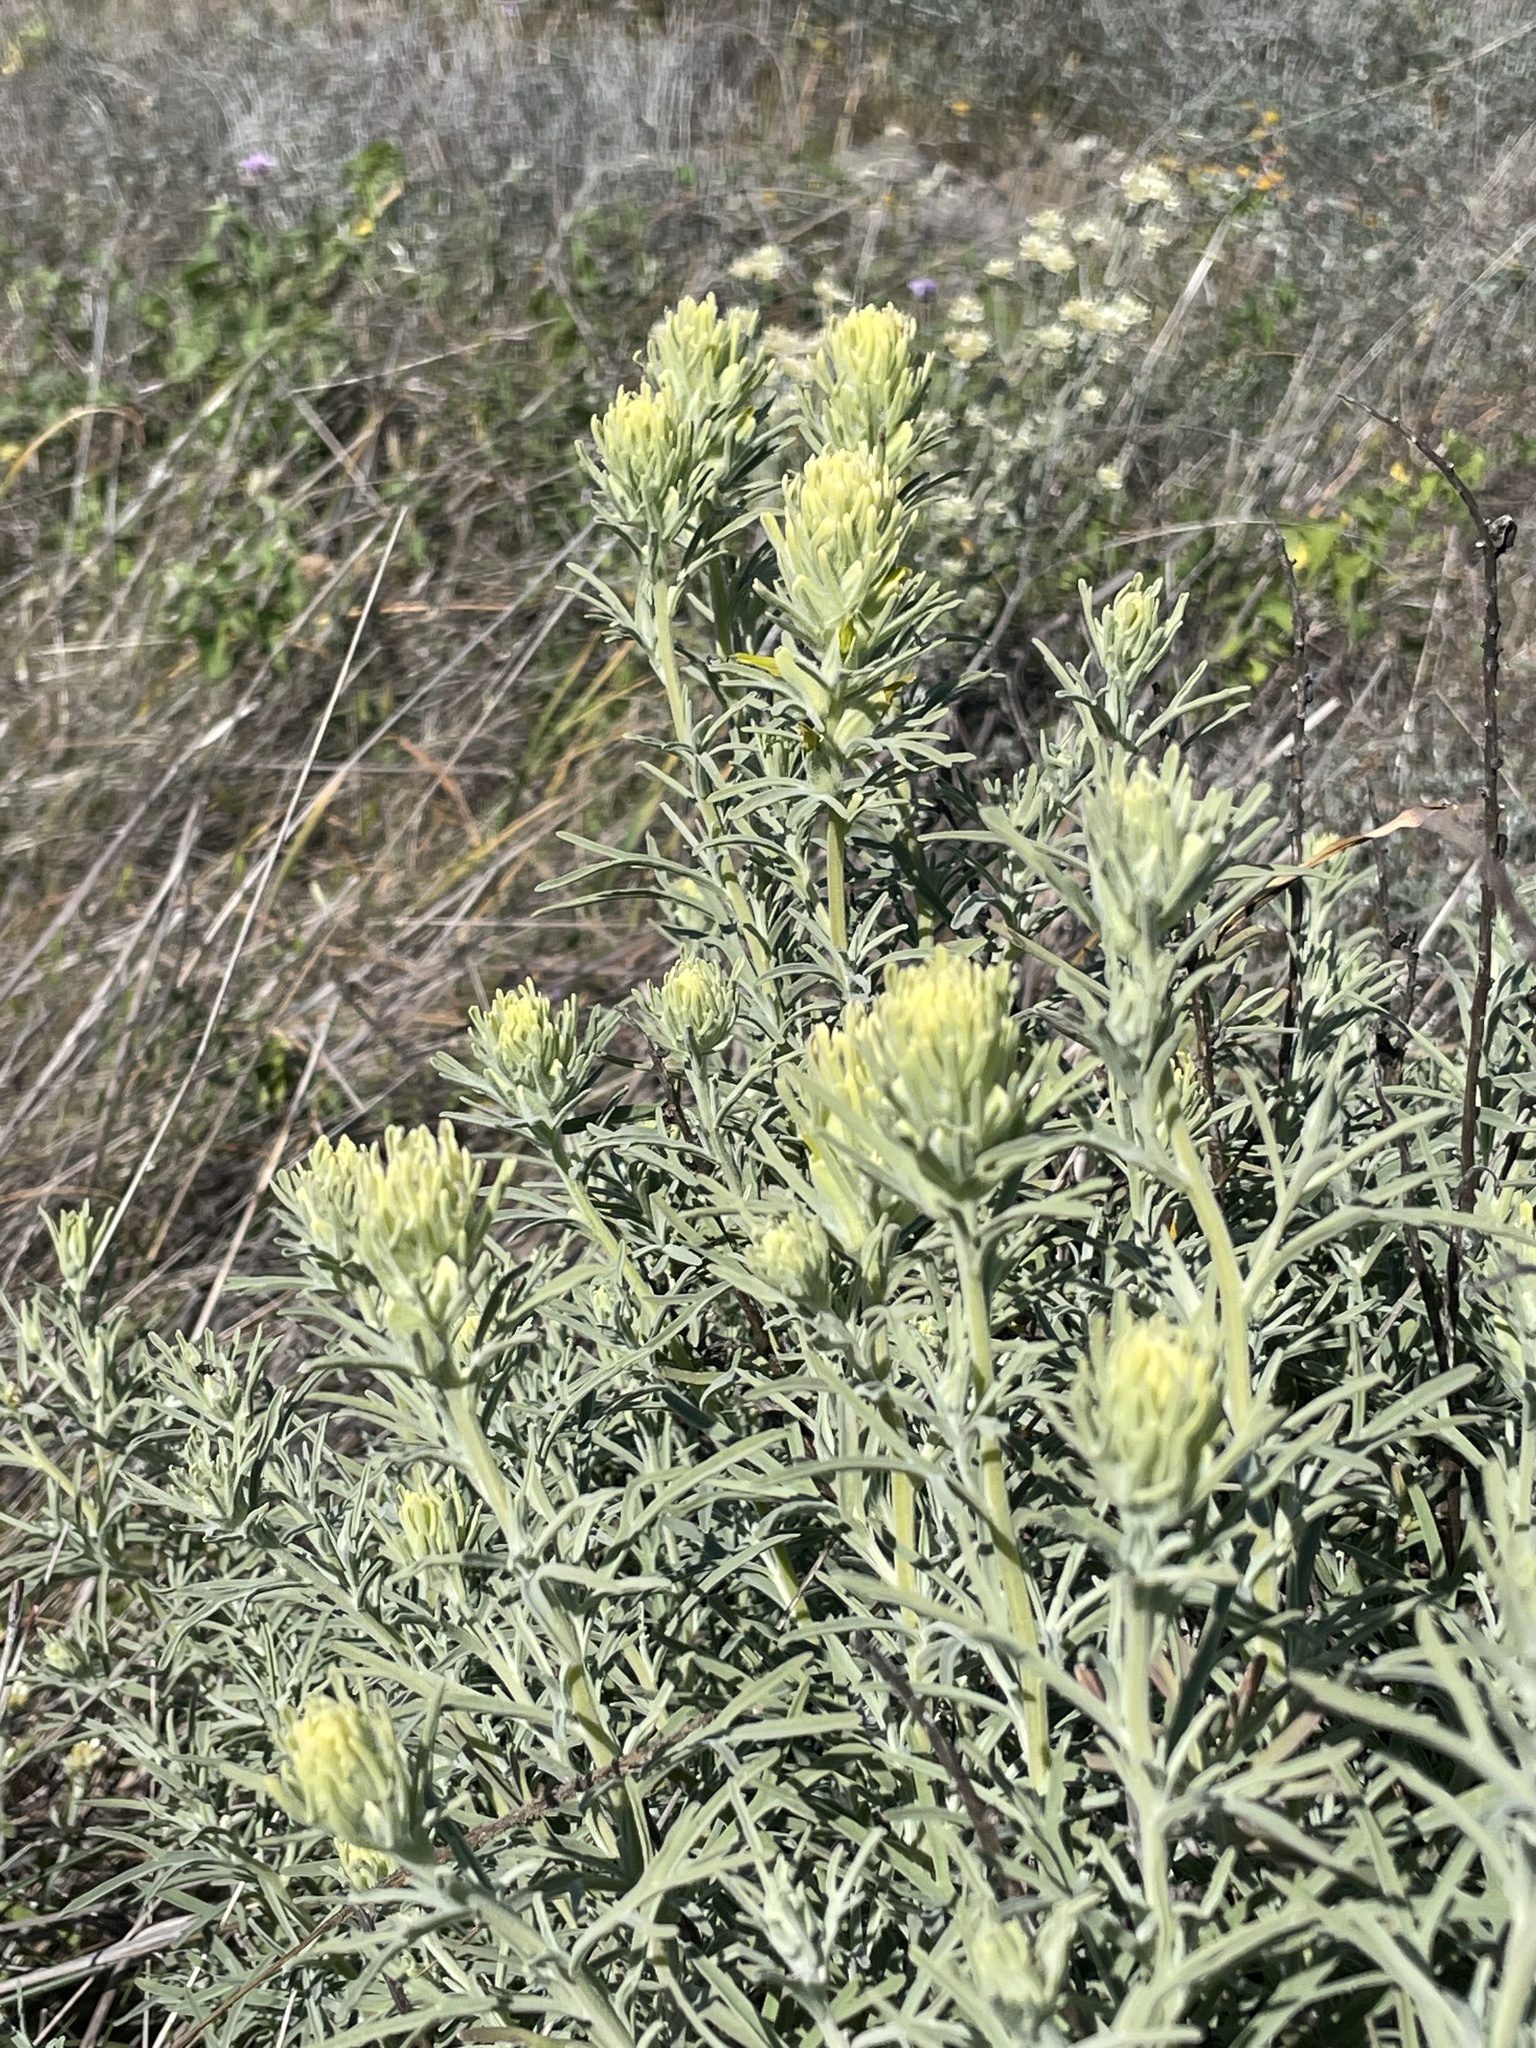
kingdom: Plantae
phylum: Tracheophyta
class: Magnoliopsida
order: Lamiales
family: Orobanchaceae
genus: Castilleja
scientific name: Castilleja grisea
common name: San clemente island indian paintbrush
